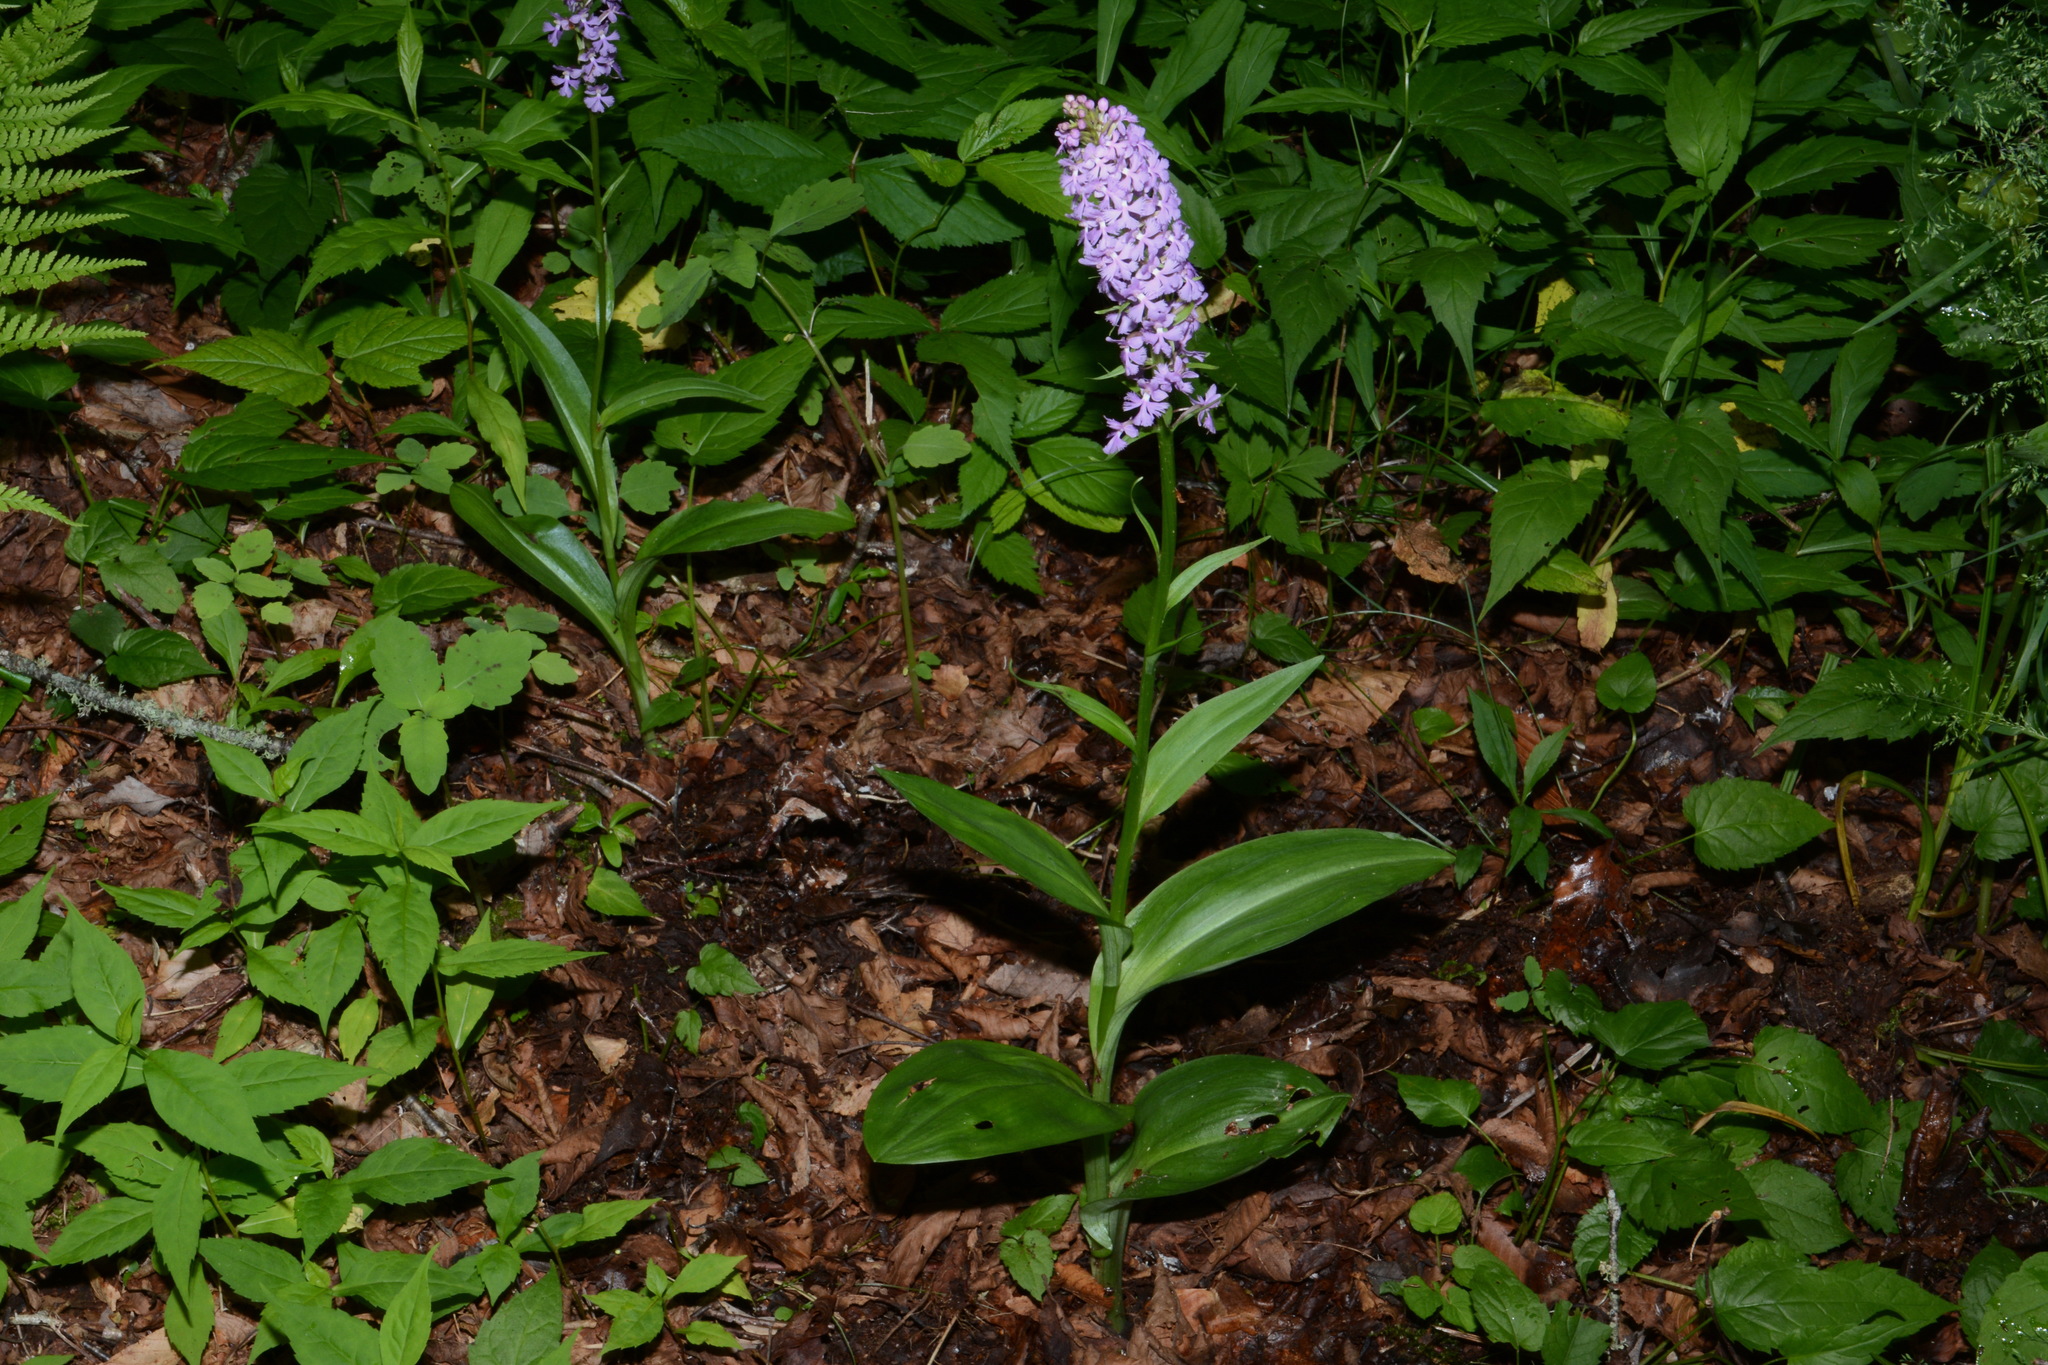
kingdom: Plantae
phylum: Tracheophyta
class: Liliopsida
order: Asparagales
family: Orchidaceae
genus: Platanthera
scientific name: Platanthera psycodes
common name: Lesser purple fringed orchid
